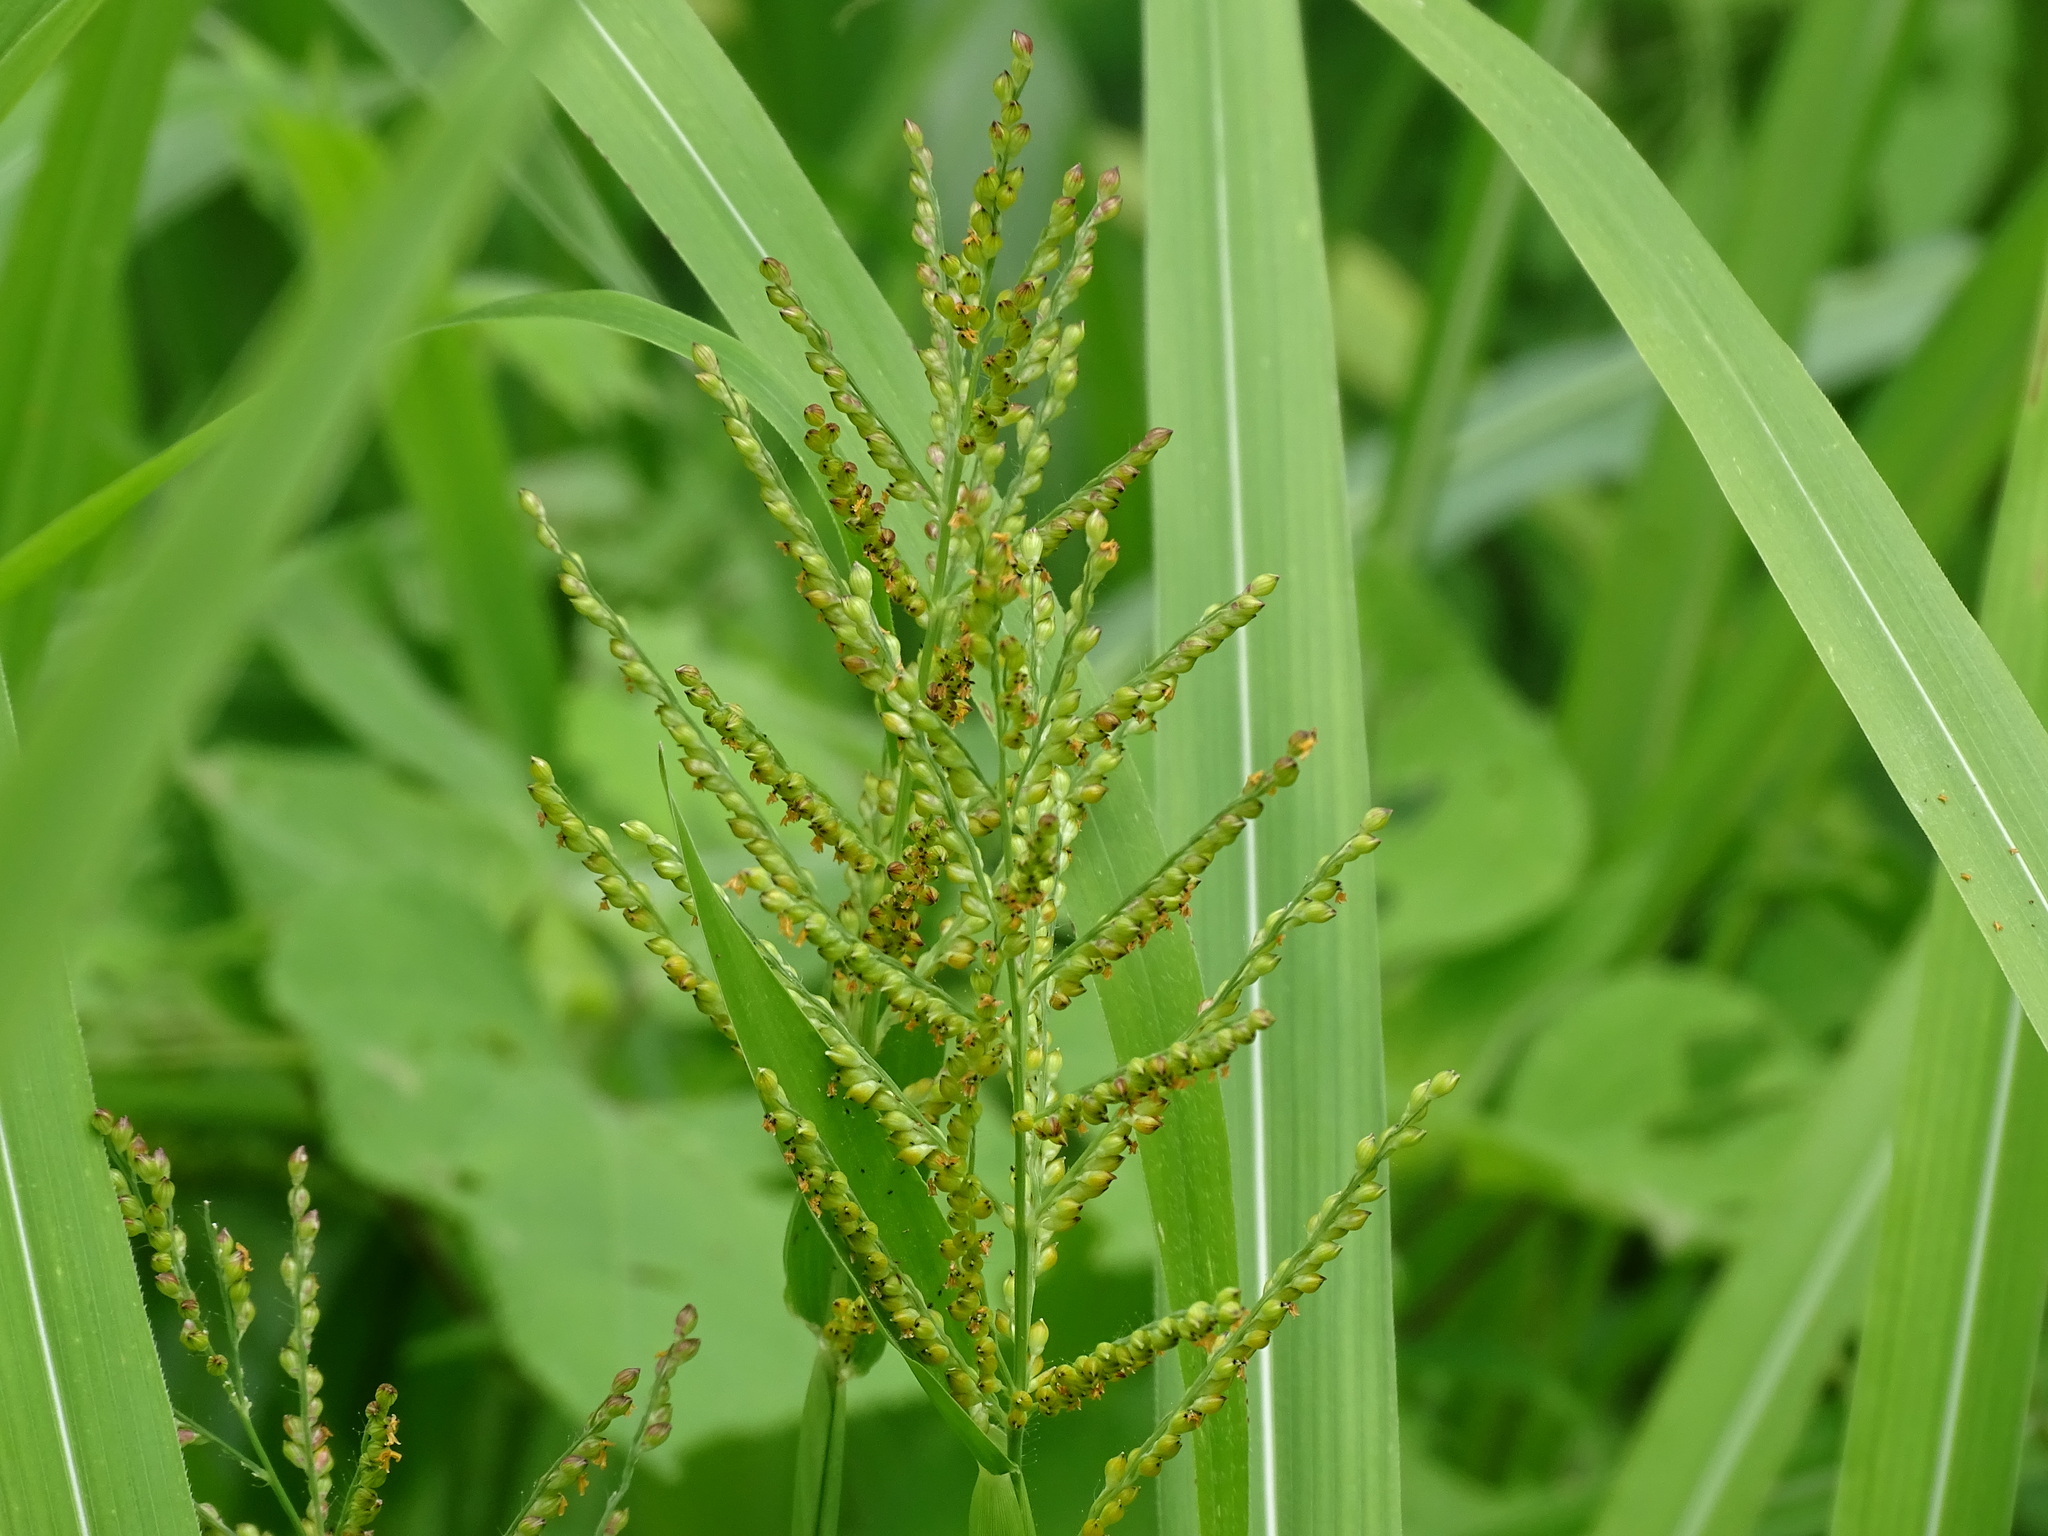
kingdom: Plantae
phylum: Tracheophyta
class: Liliopsida
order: Poales
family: Poaceae
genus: Urochloa
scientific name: Urochloa fusca
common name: Browntop signal grass
